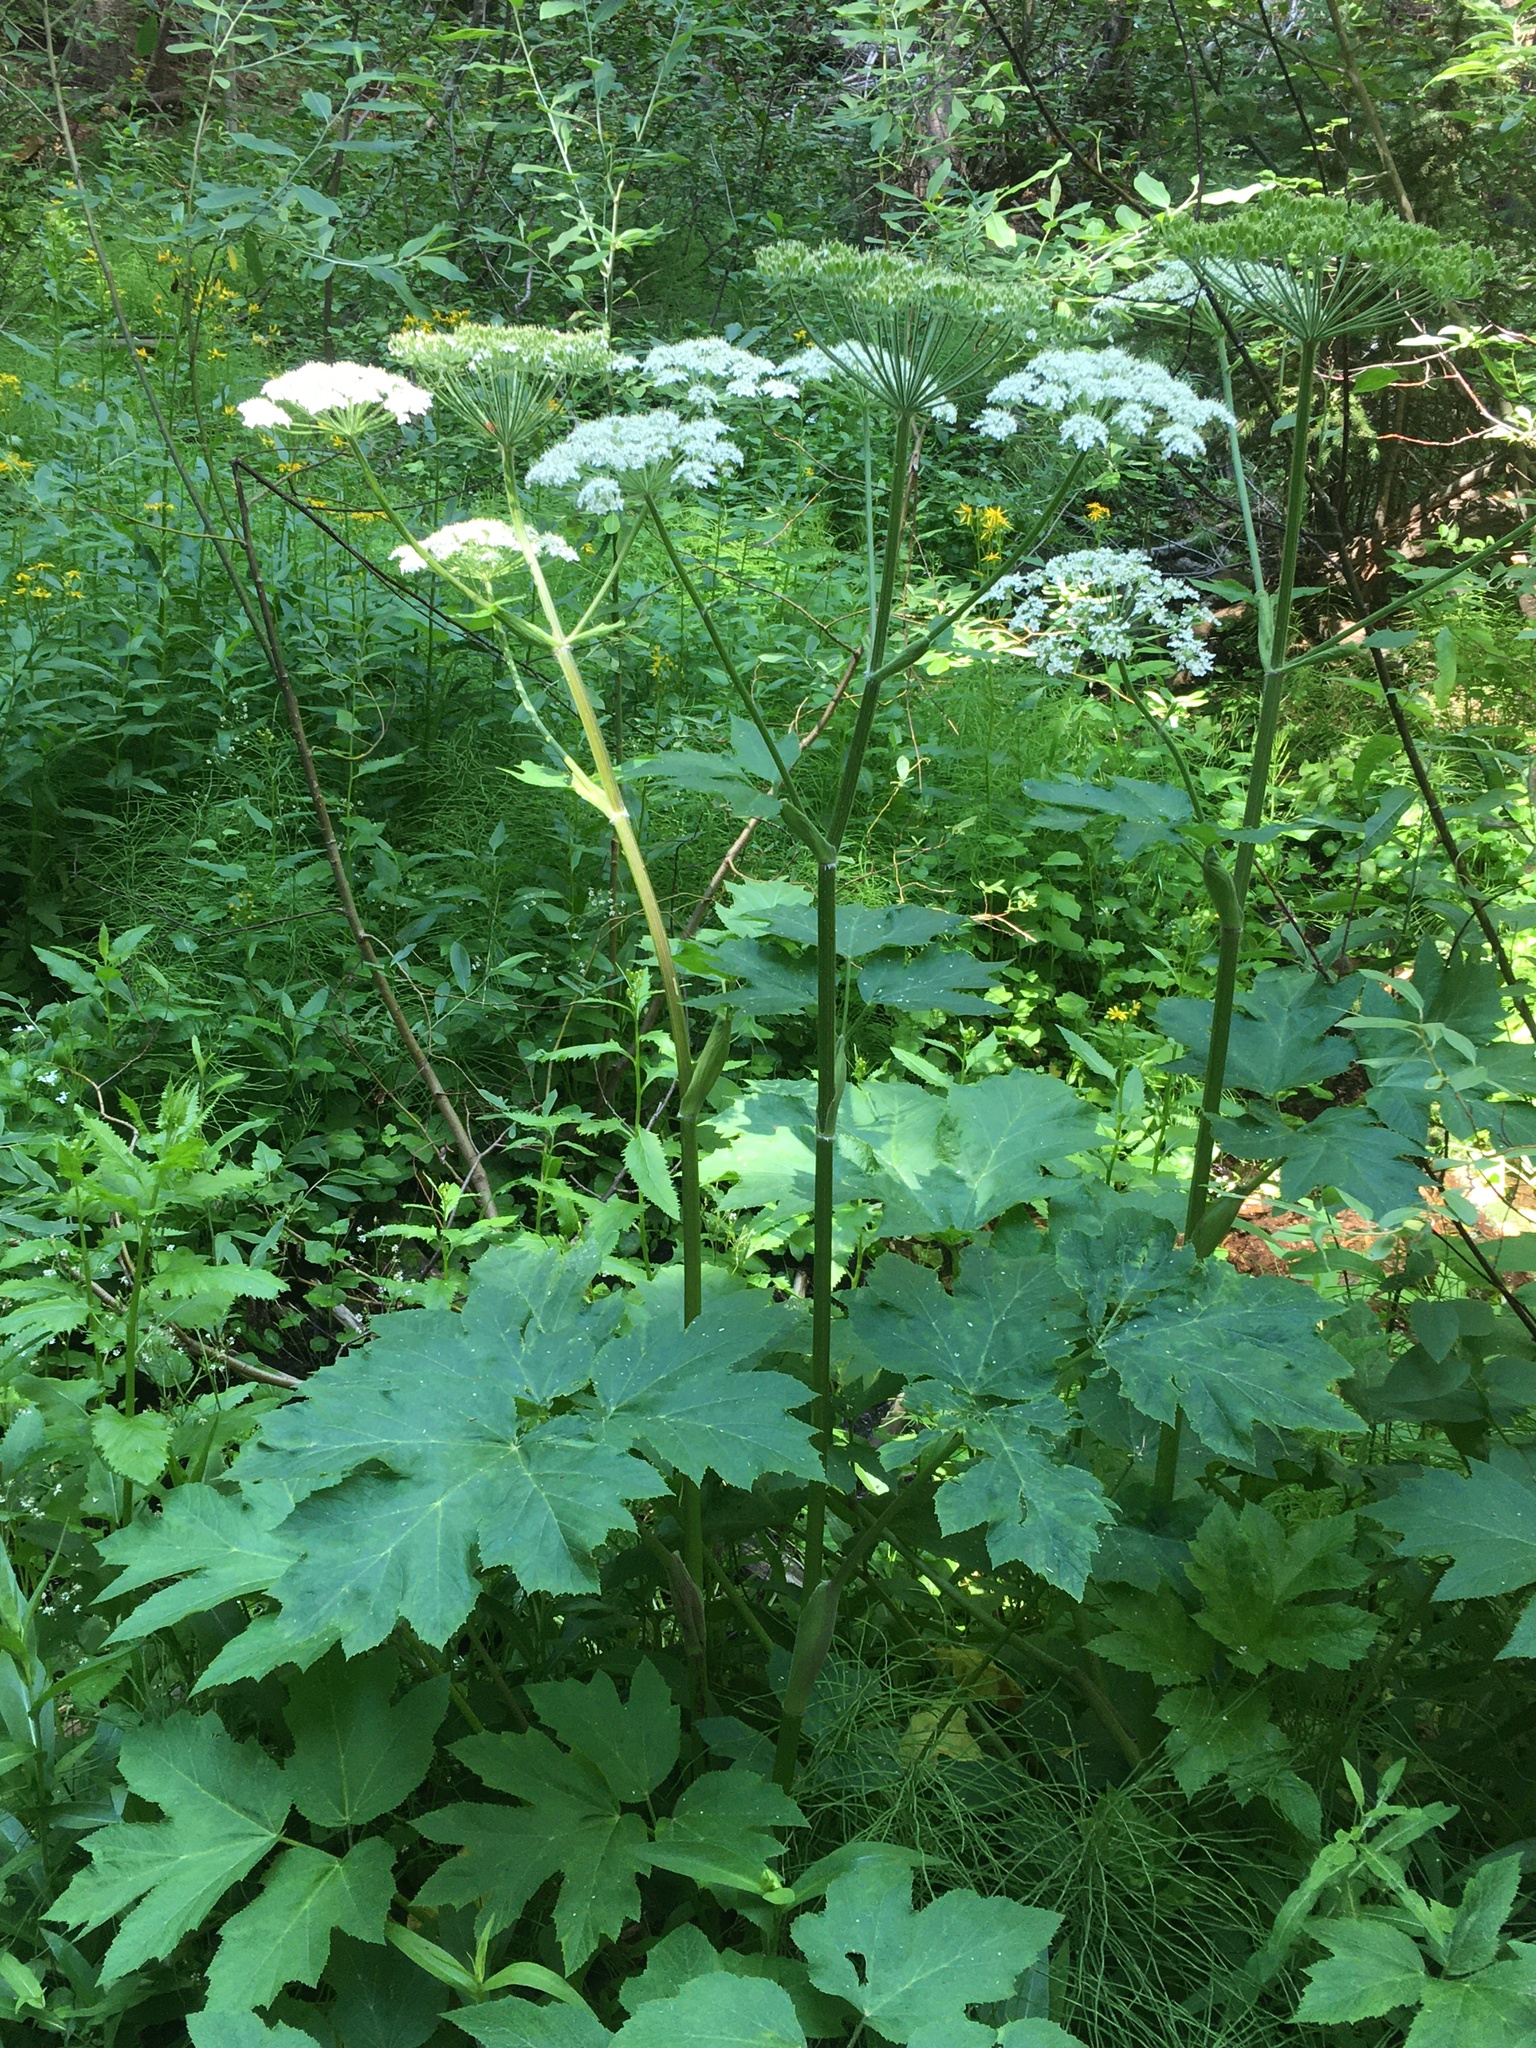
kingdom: Plantae
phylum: Tracheophyta
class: Magnoliopsida
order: Apiales
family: Apiaceae
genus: Heracleum
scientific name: Heracleum maximum
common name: American cow parsnip
